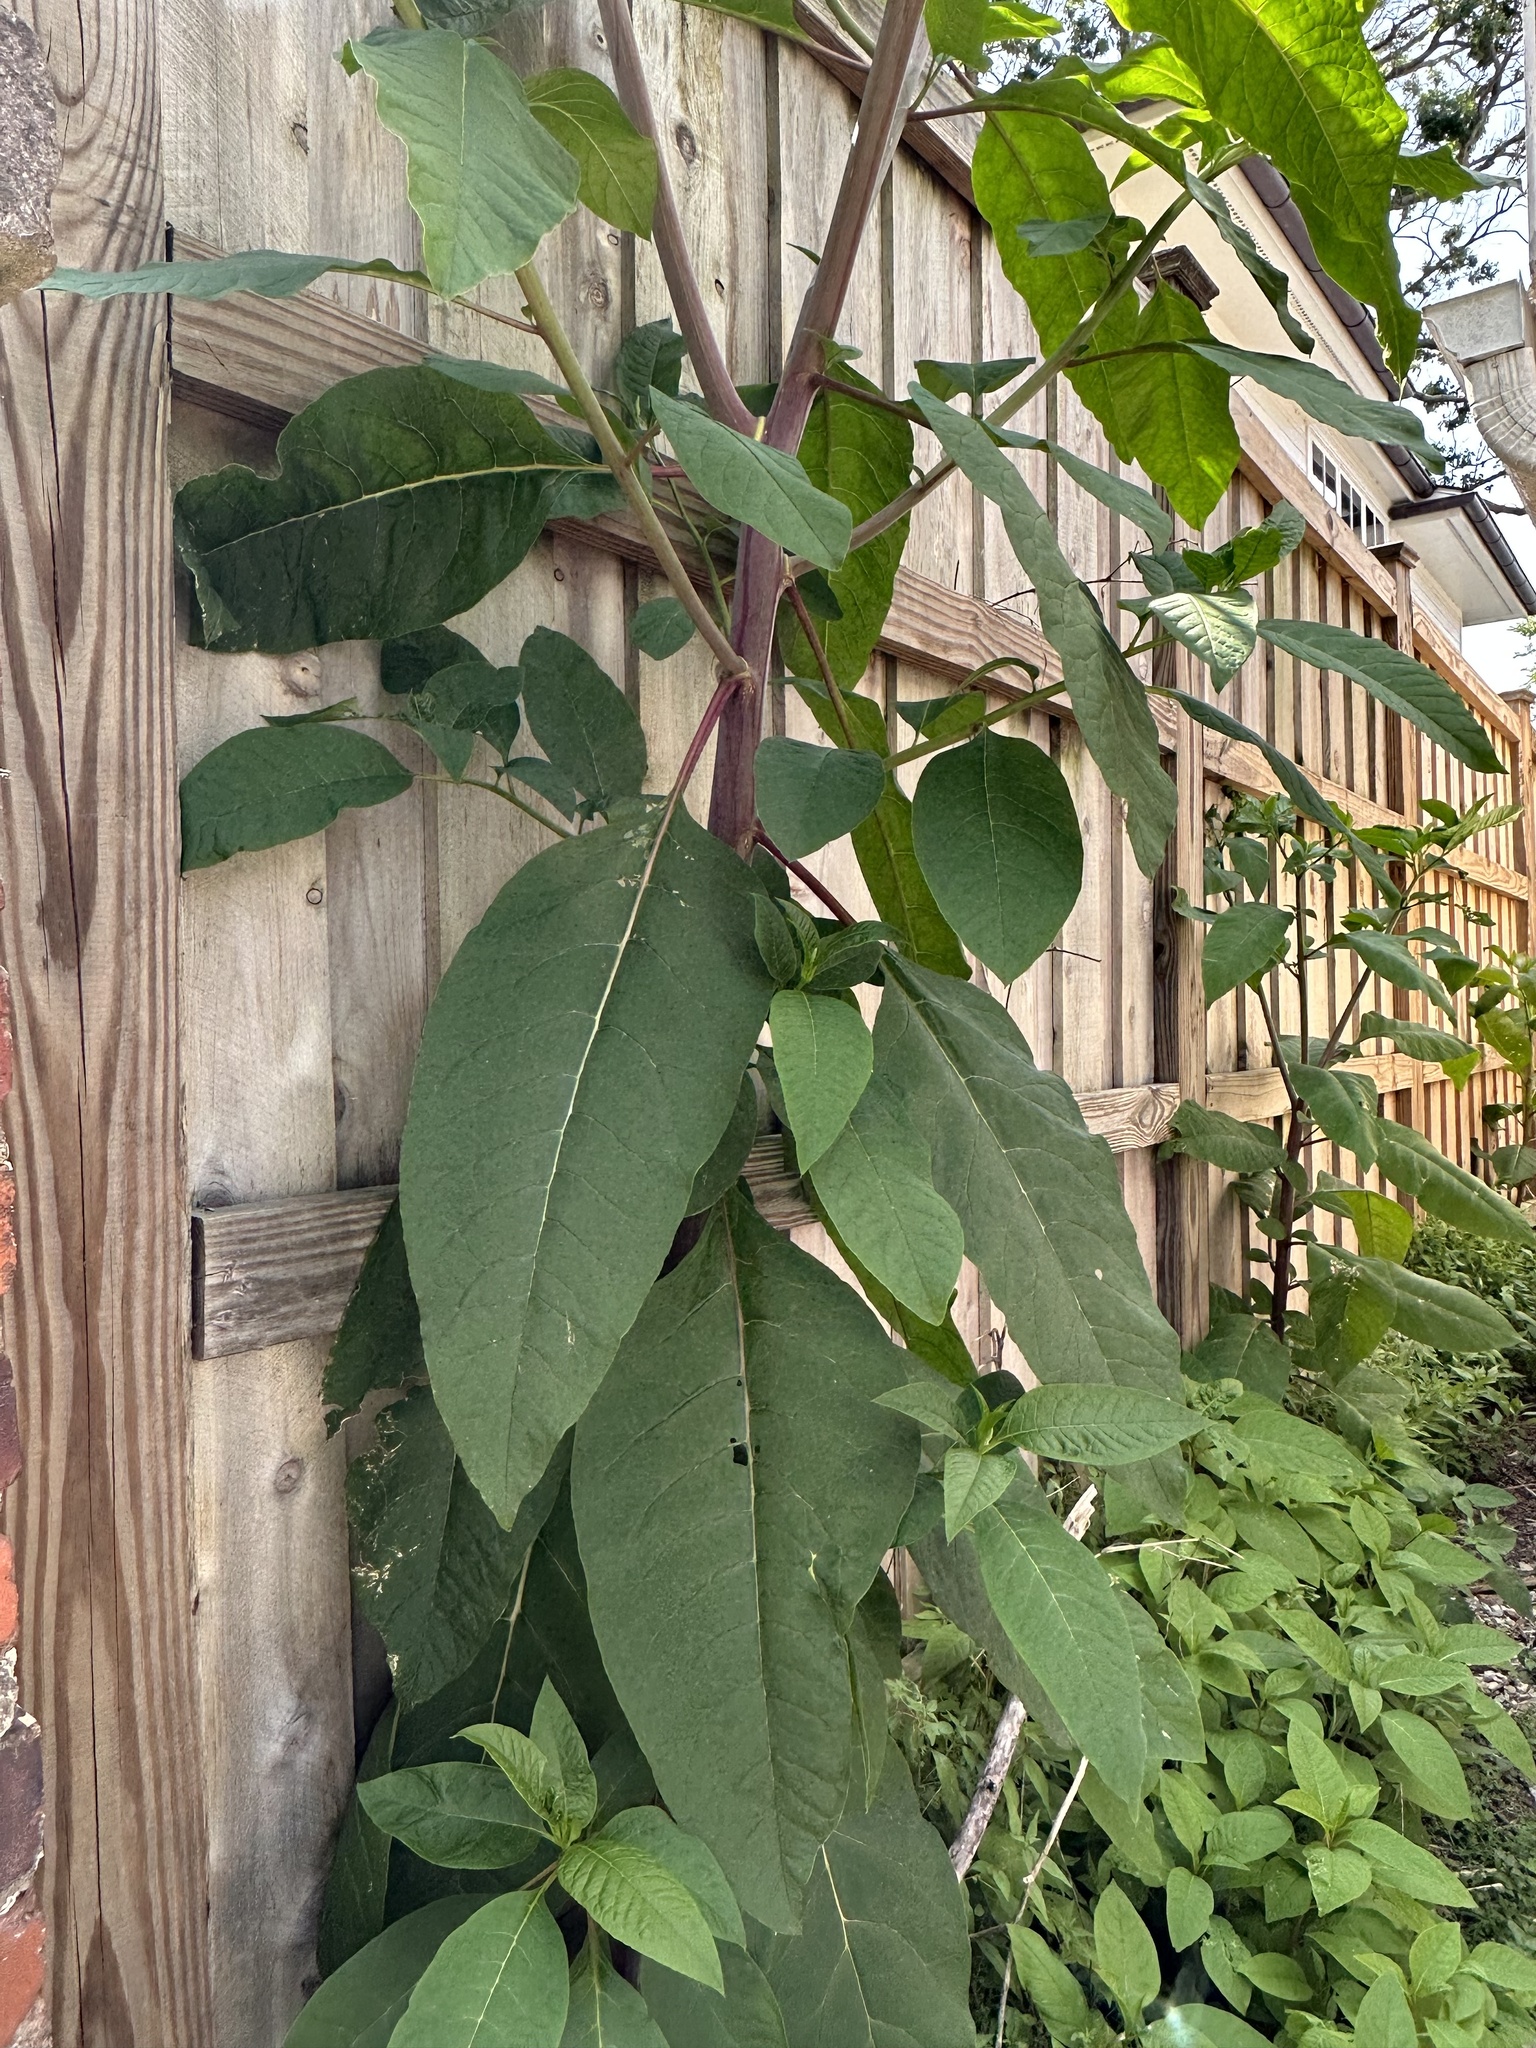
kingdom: Plantae
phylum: Tracheophyta
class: Magnoliopsida
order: Caryophyllales
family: Phytolaccaceae
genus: Phytolacca
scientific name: Phytolacca americana
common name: American pokeweed
